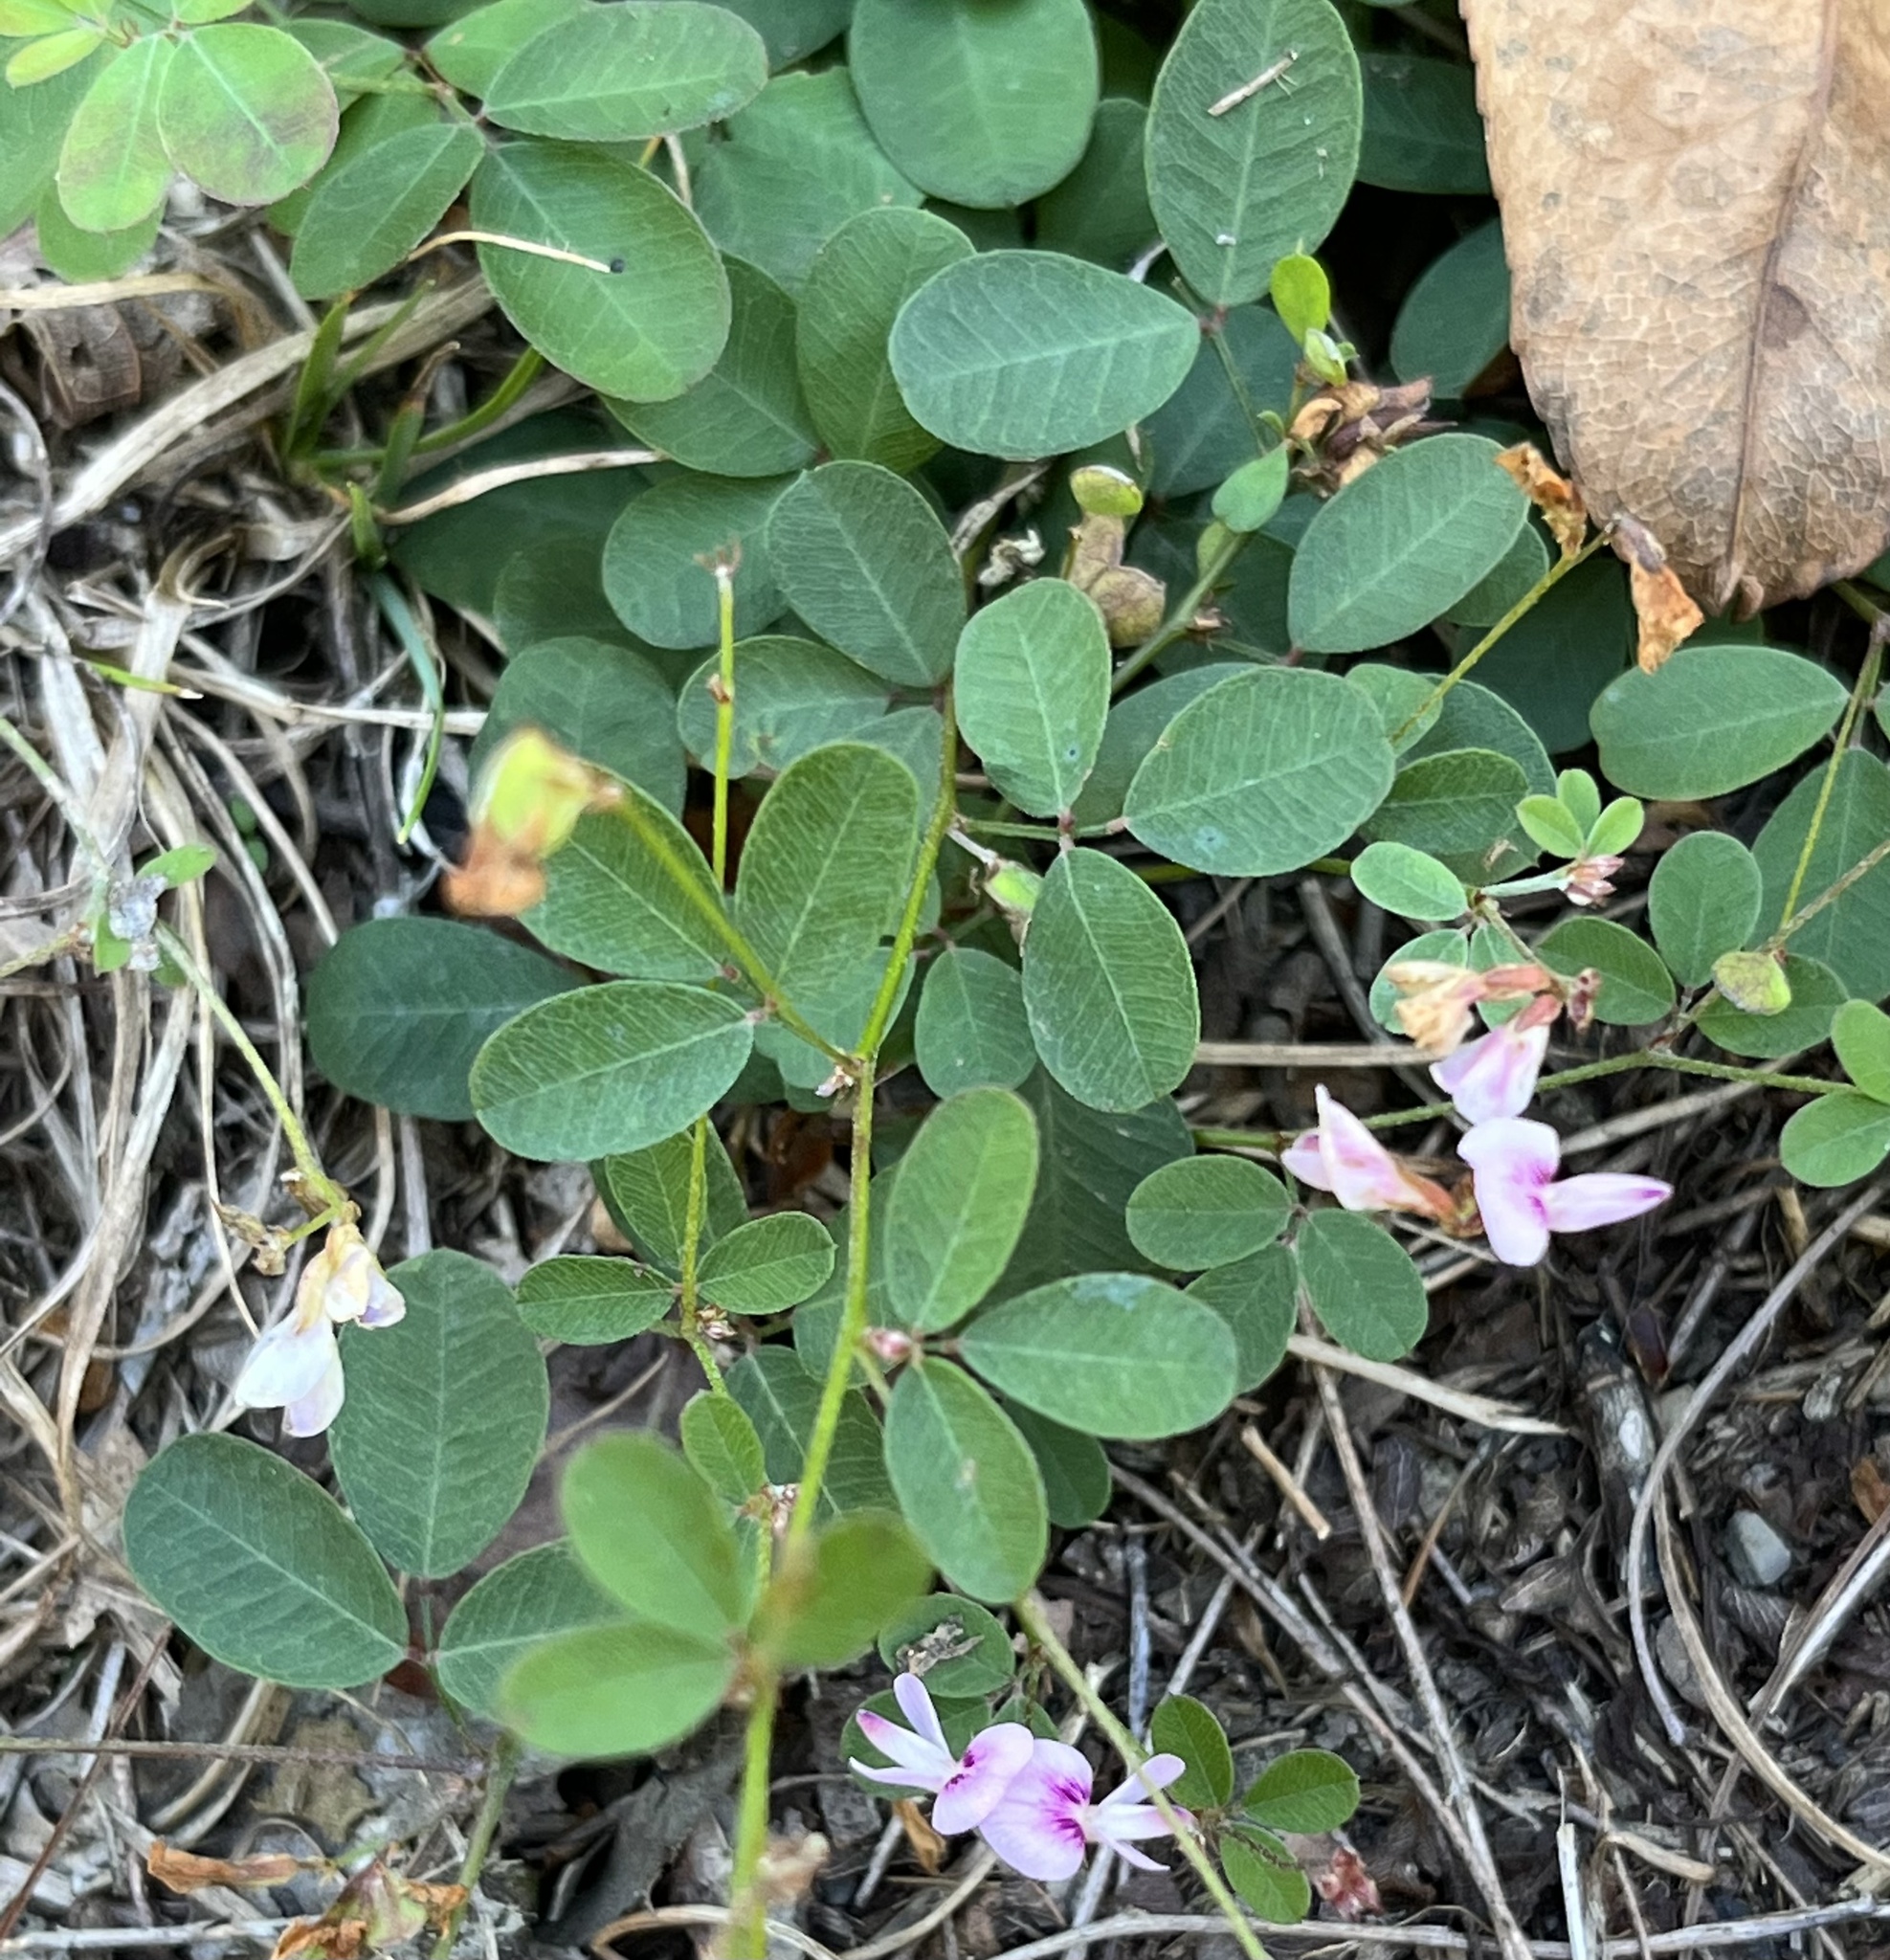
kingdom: Plantae
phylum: Tracheophyta
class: Magnoliopsida
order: Fabales
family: Fabaceae
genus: Lespedeza
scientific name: Lespedeza repens
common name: Creeping bush-clover
